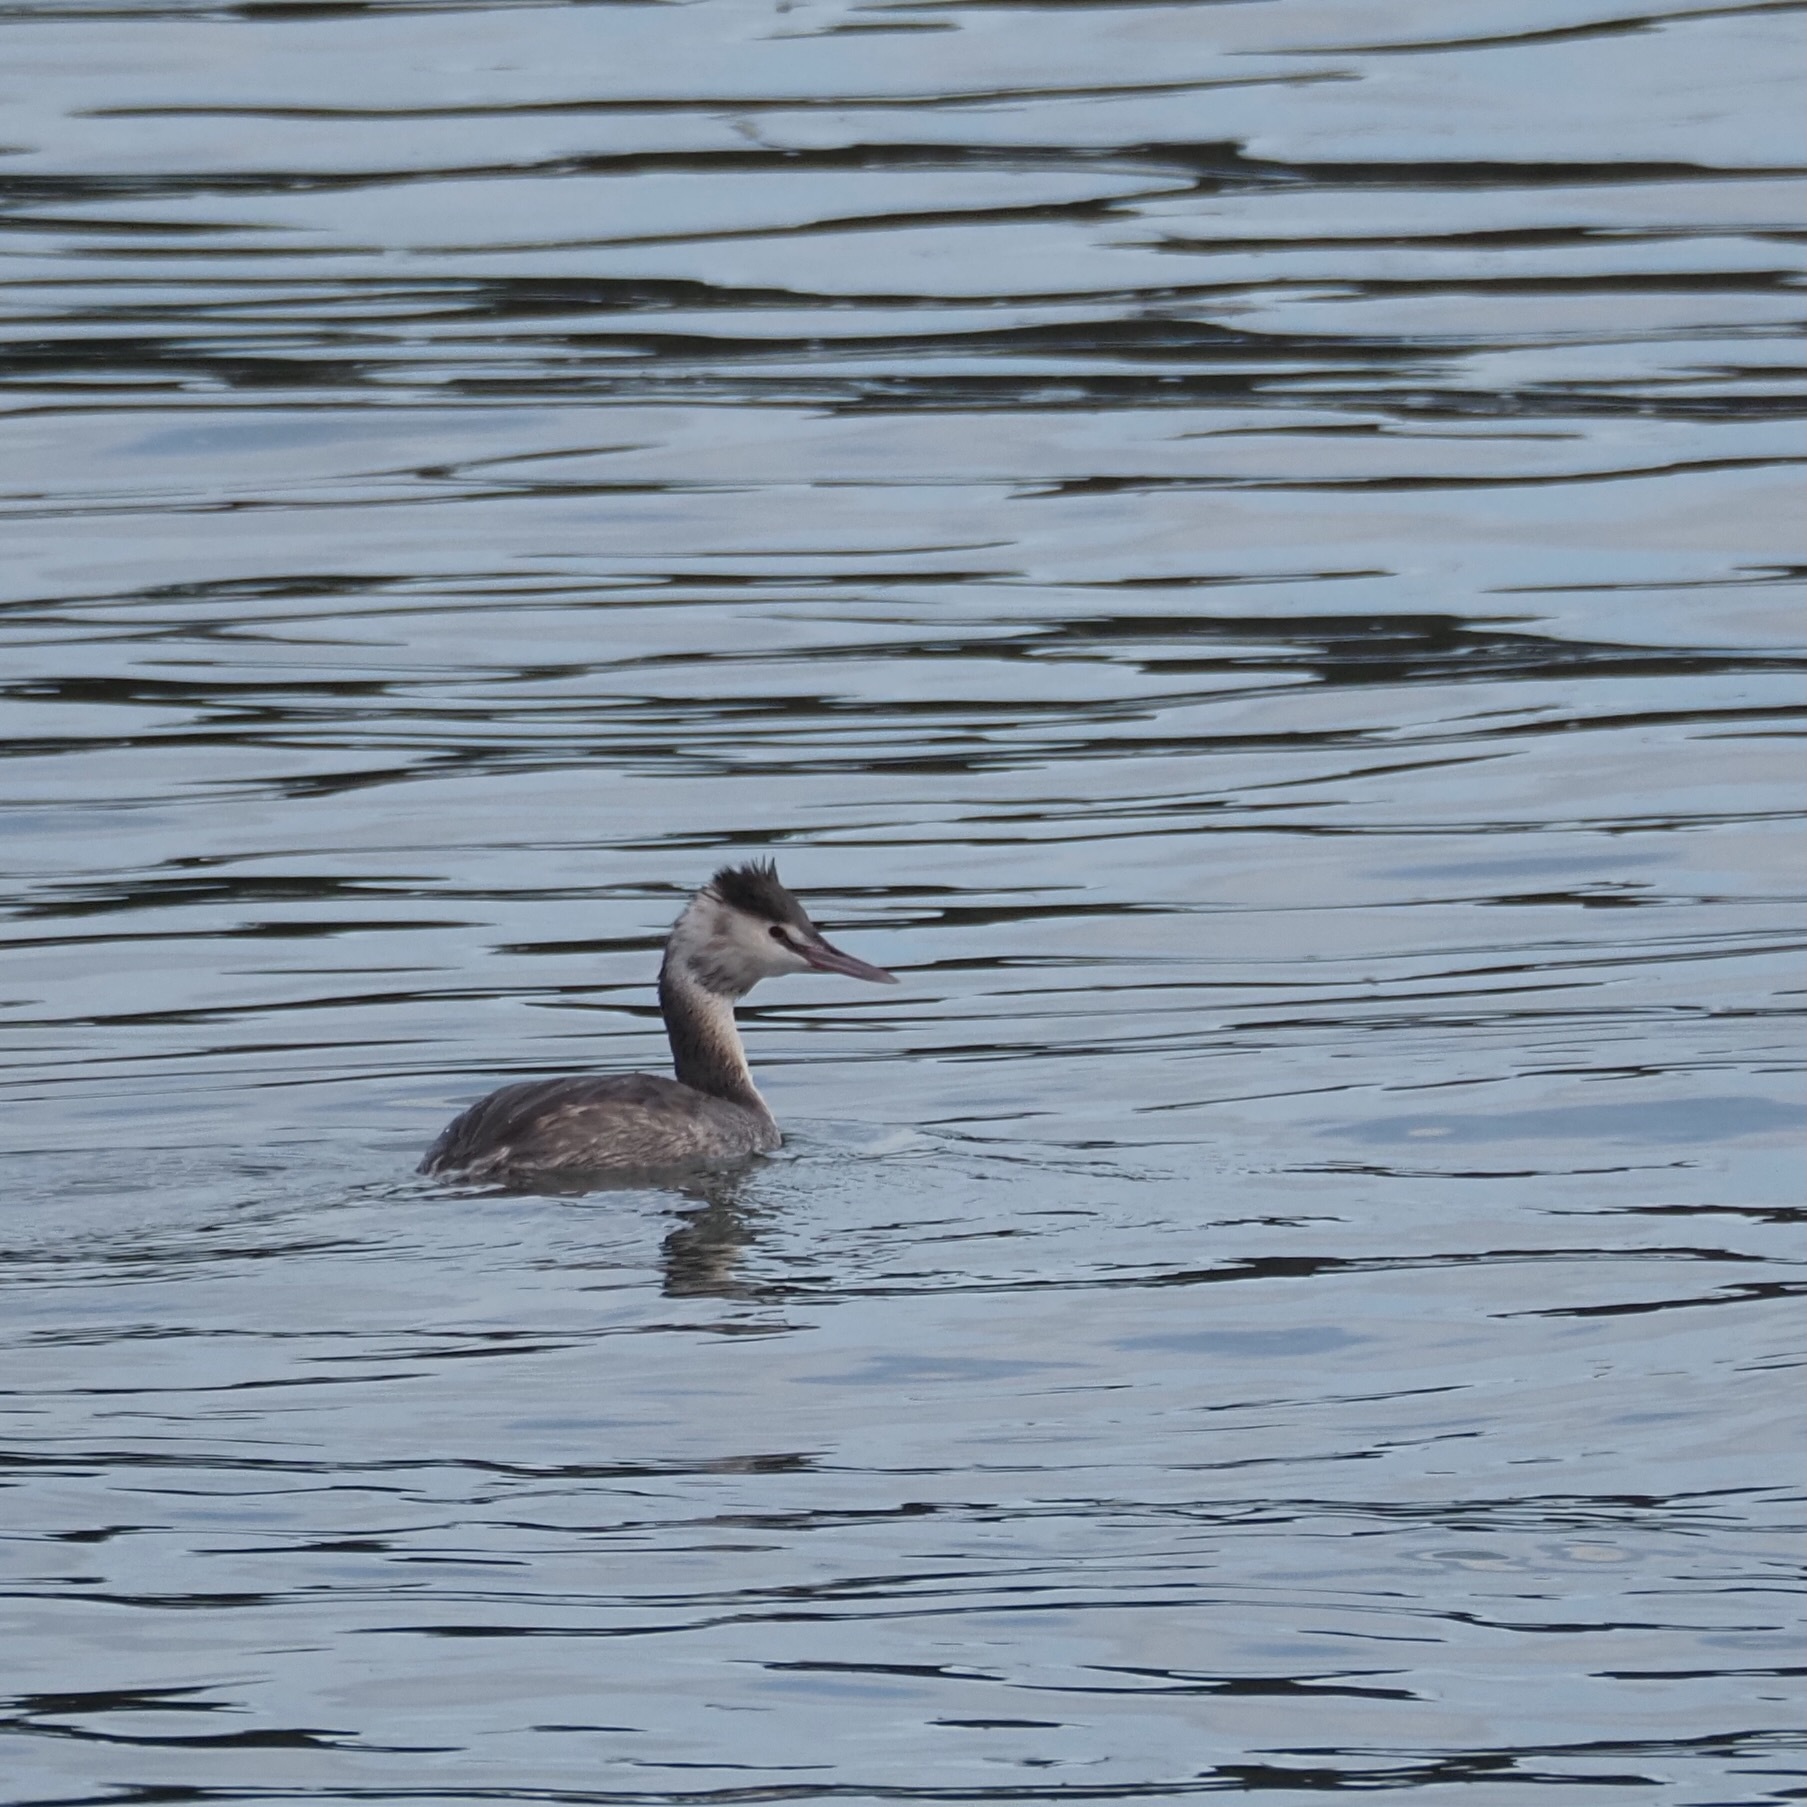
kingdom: Animalia
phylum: Chordata
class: Aves
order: Podicipediformes
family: Podicipedidae
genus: Podiceps
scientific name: Podiceps cristatus
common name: Great crested grebe
